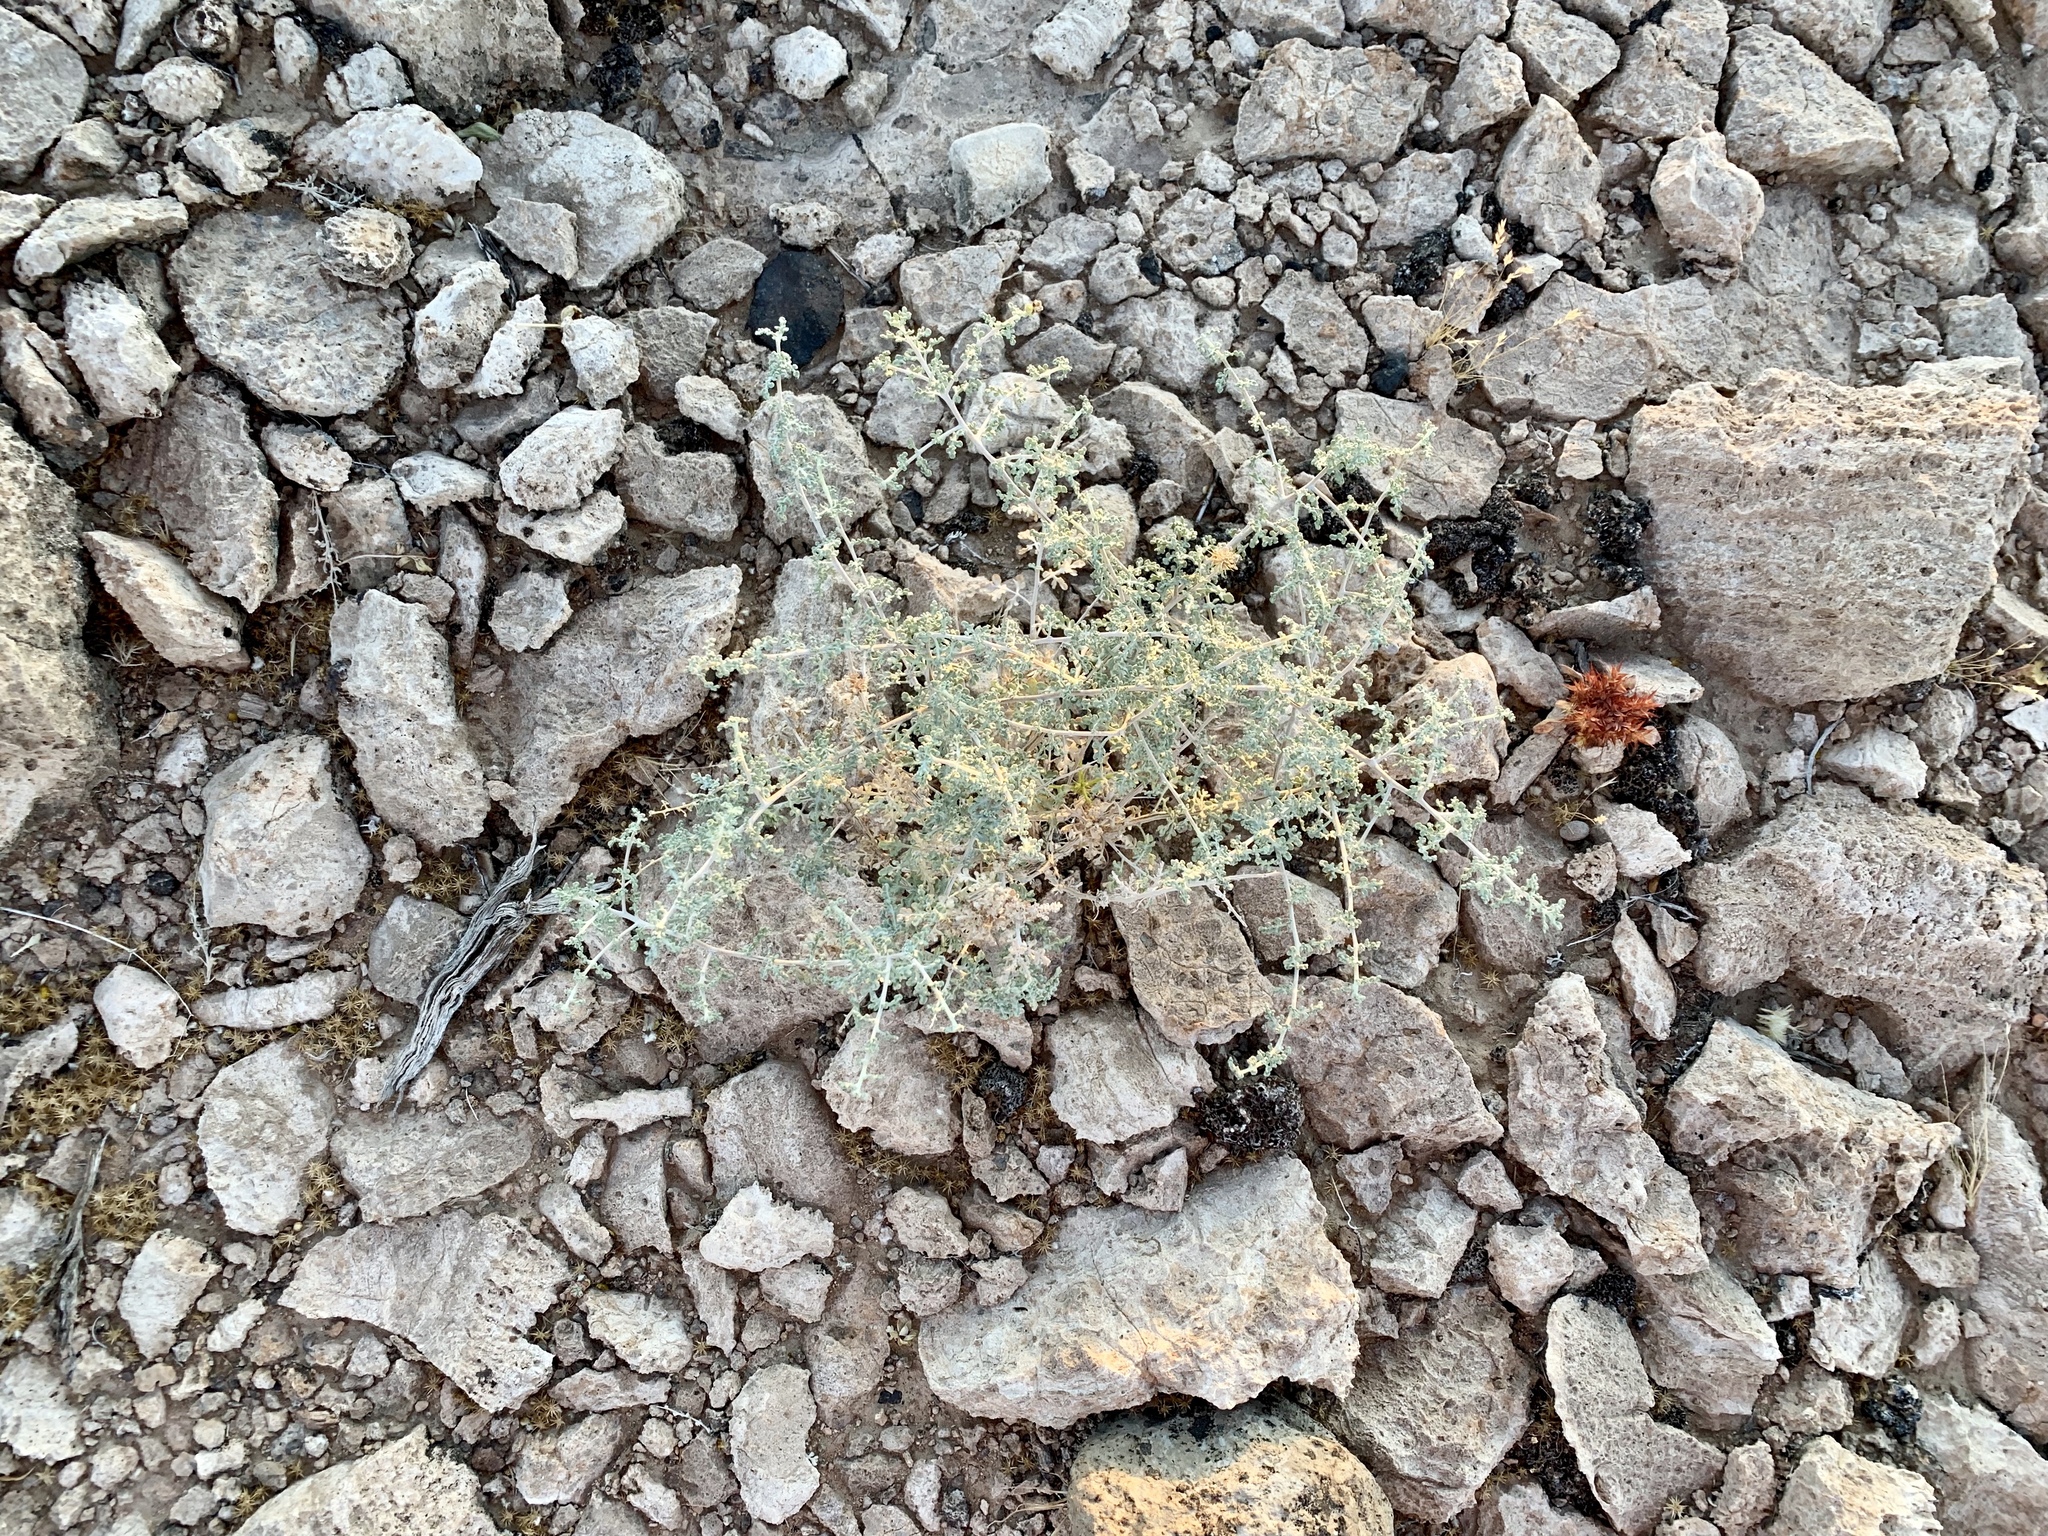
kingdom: Plantae
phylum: Tracheophyta
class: Magnoliopsida
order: Asterales
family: Asteraceae
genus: Ambrosia
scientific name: Ambrosia dumosa
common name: Bur-sage
